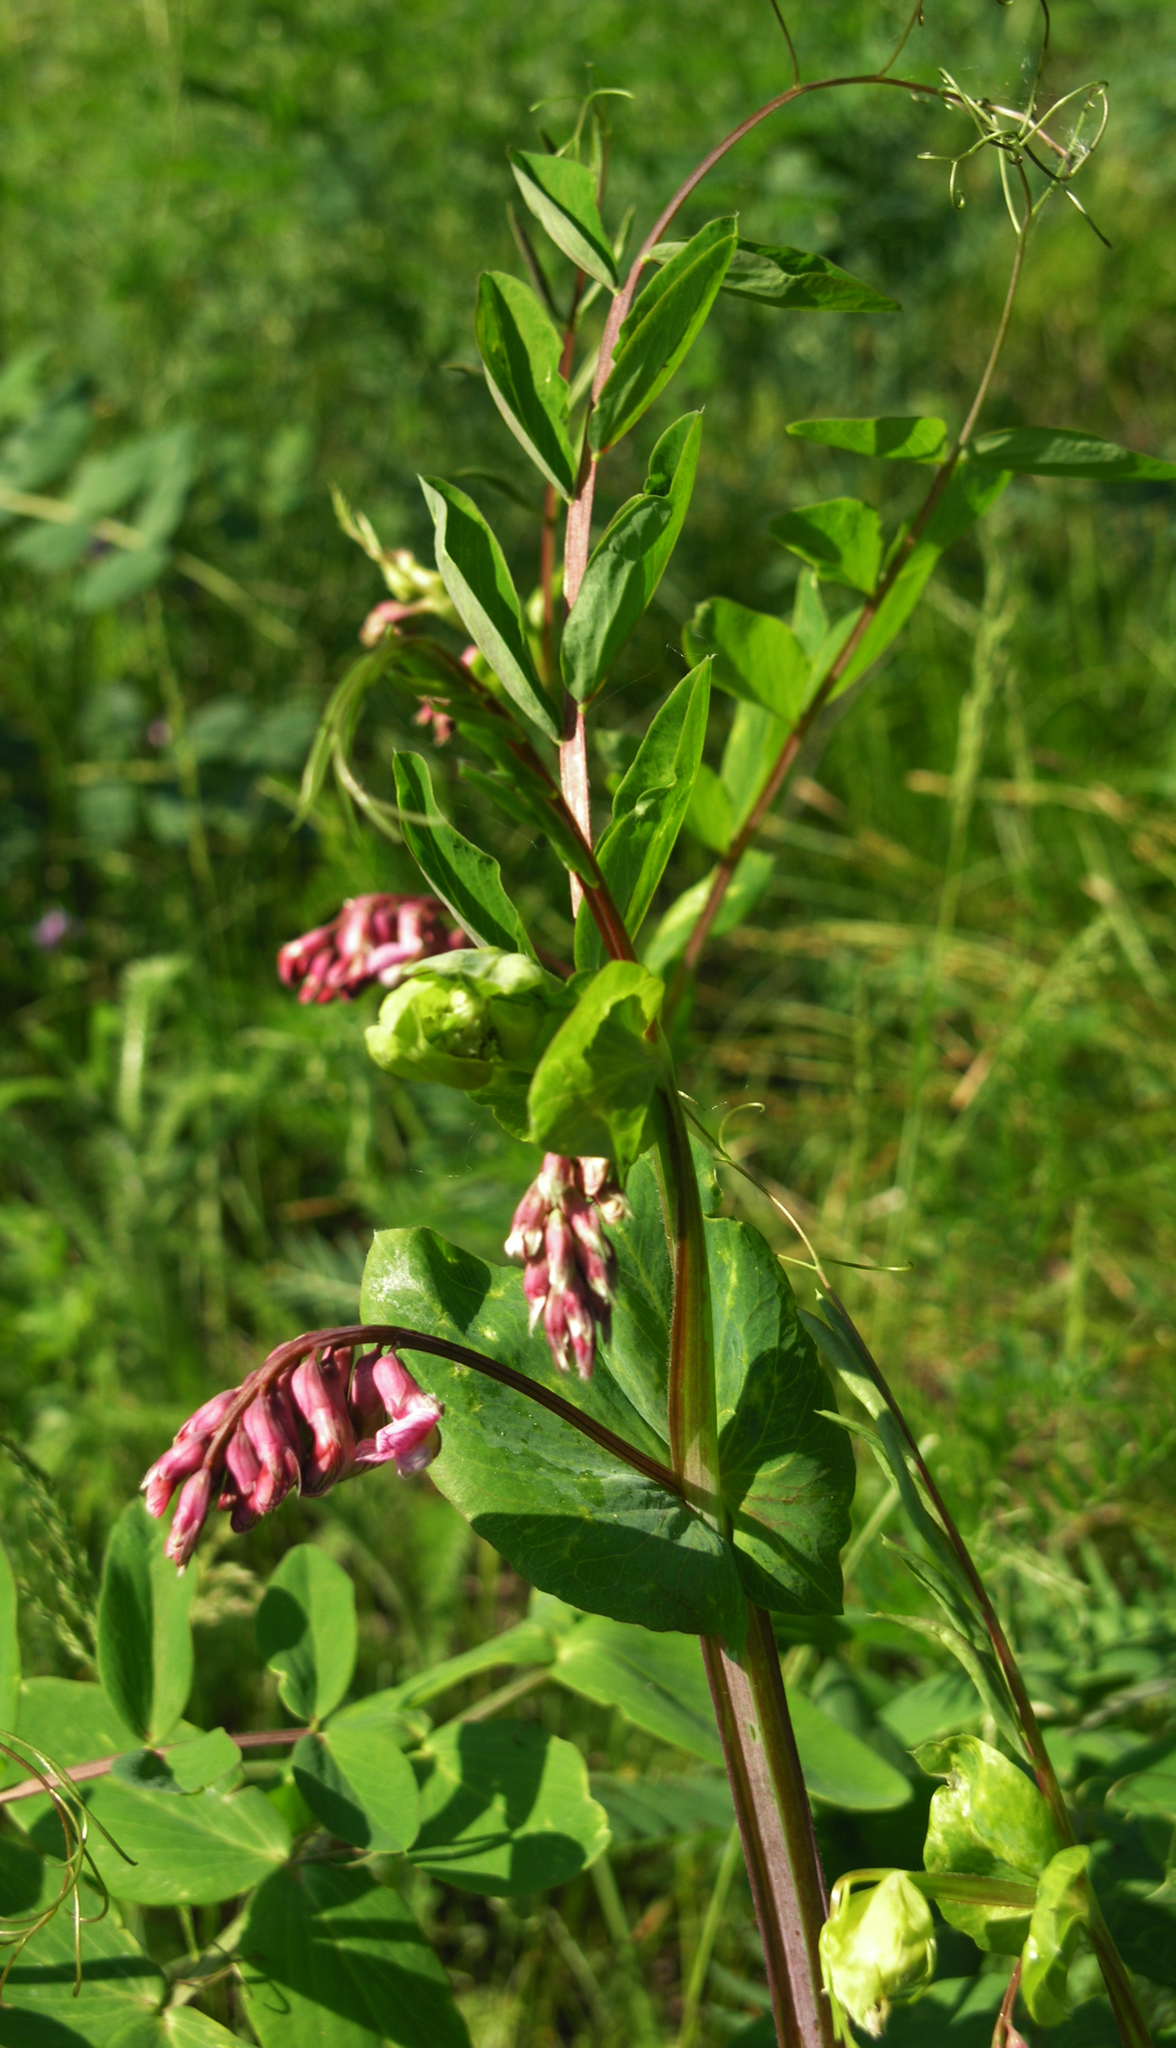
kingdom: Plantae
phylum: Tracheophyta
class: Magnoliopsida
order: Fabales
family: Fabaceae
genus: Lathyrus
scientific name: Lathyrus pisiformis
